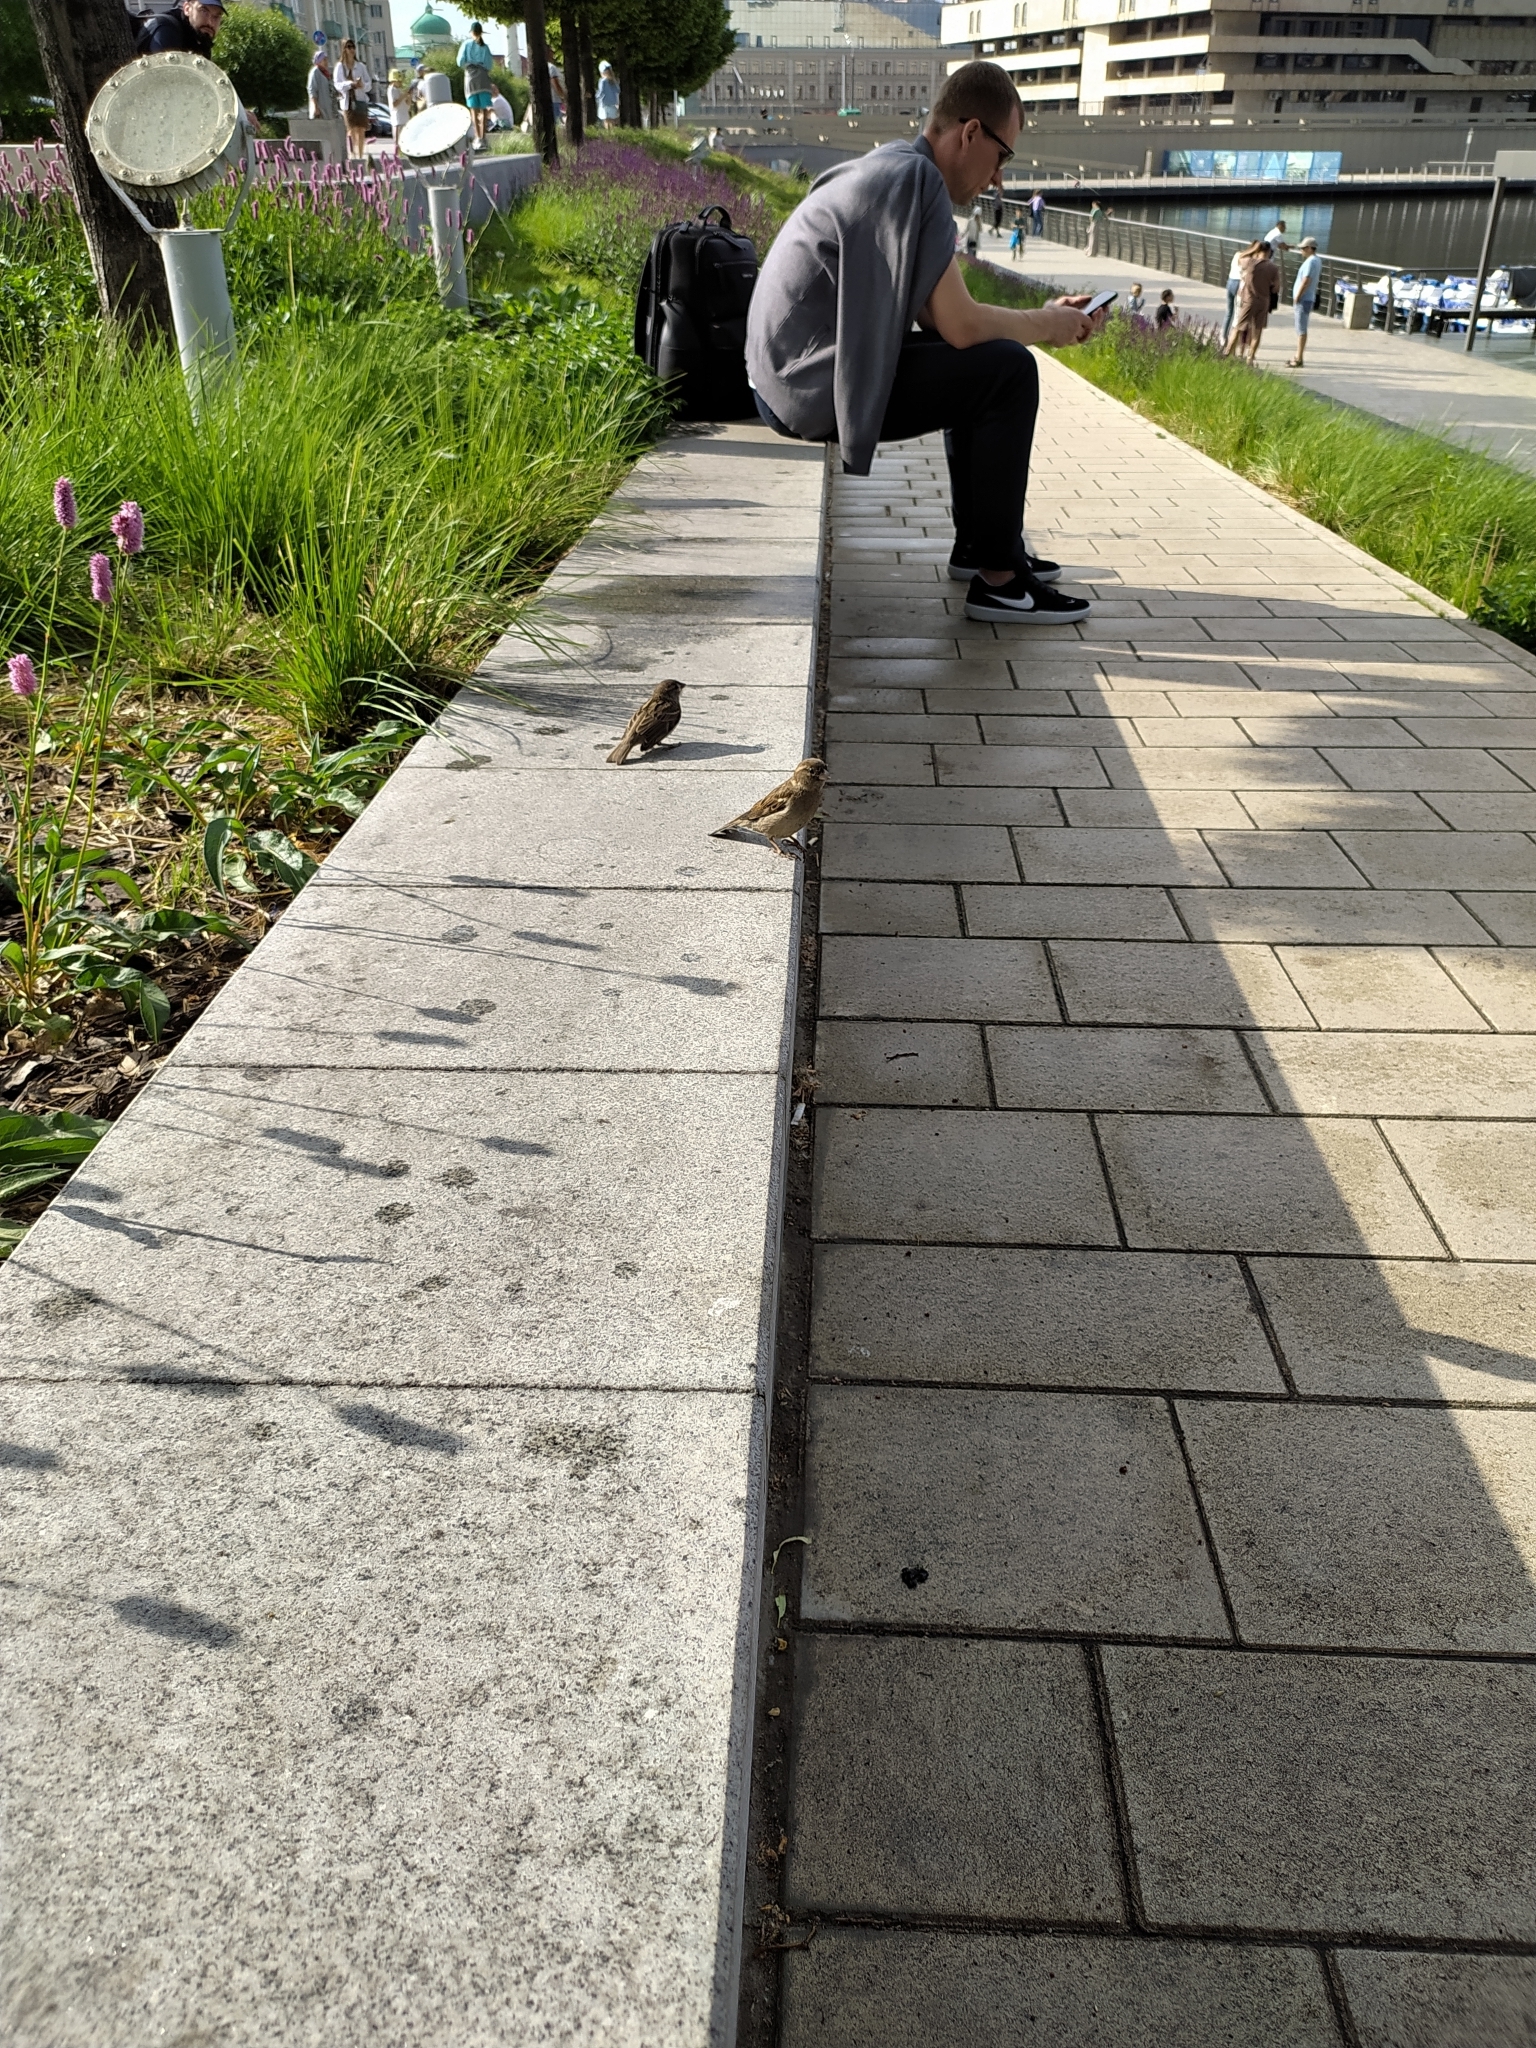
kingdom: Animalia
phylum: Chordata
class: Aves
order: Passeriformes
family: Passeridae
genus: Passer
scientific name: Passer domesticus
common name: House sparrow
